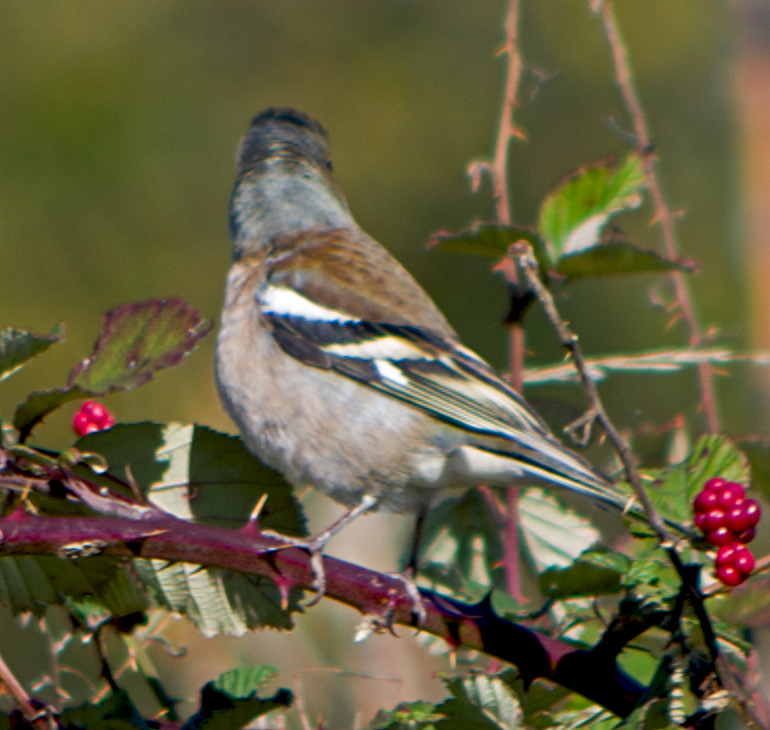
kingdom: Animalia
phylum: Chordata
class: Aves
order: Passeriformes
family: Fringillidae
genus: Fringilla
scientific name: Fringilla coelebs
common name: Common chaffinch
